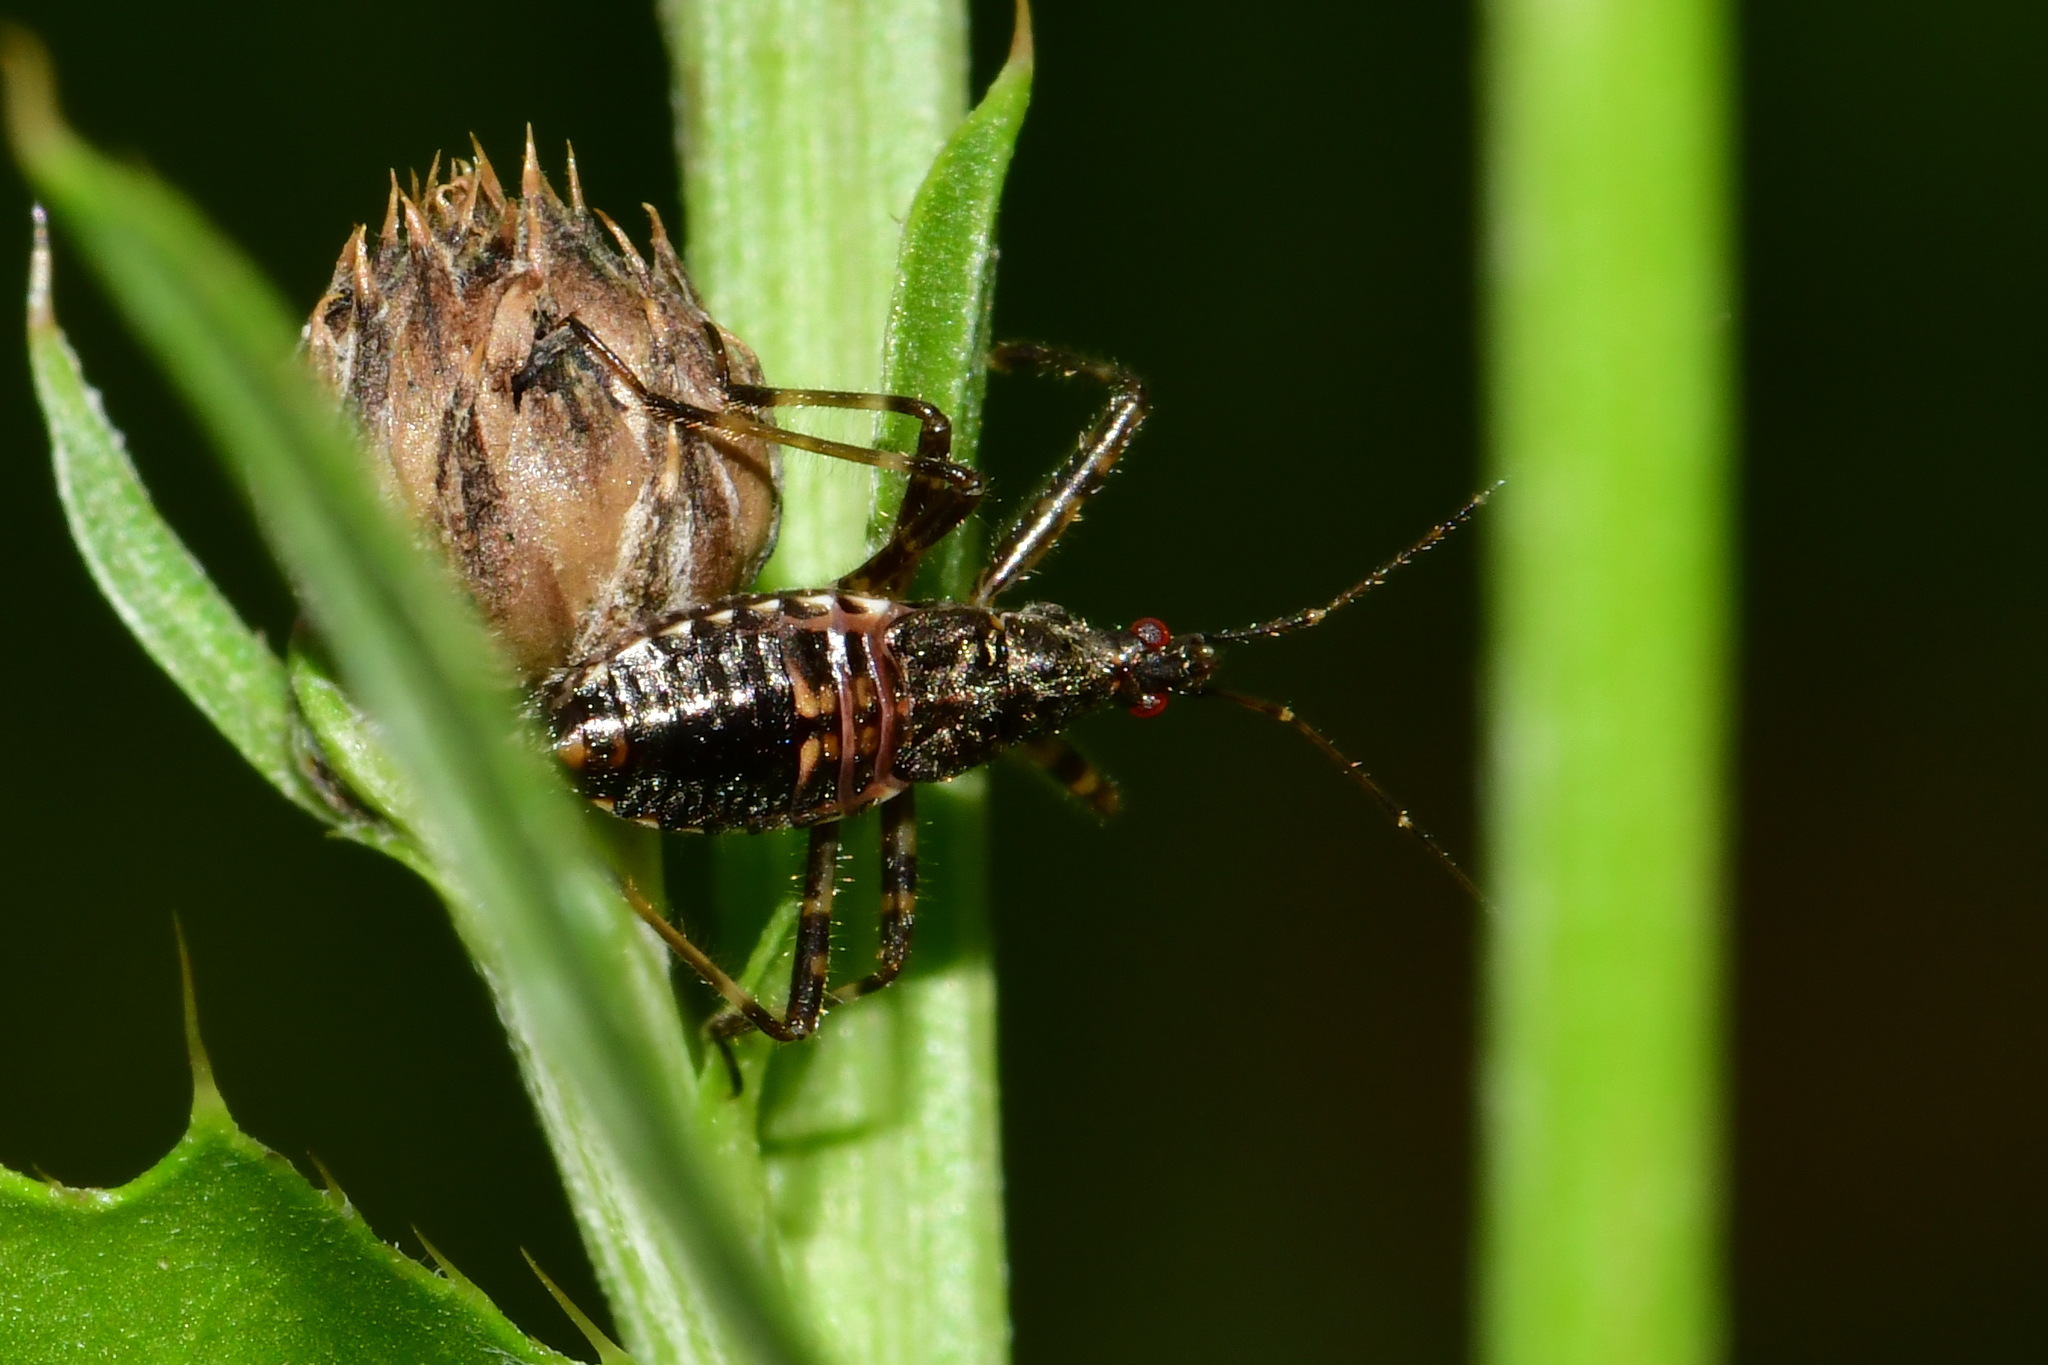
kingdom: Animalia
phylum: Arthropoda
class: Insecta
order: Hemiptera
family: Nabidae
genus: Himacerus
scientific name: Himacerus apterus
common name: Tree damsel bug
